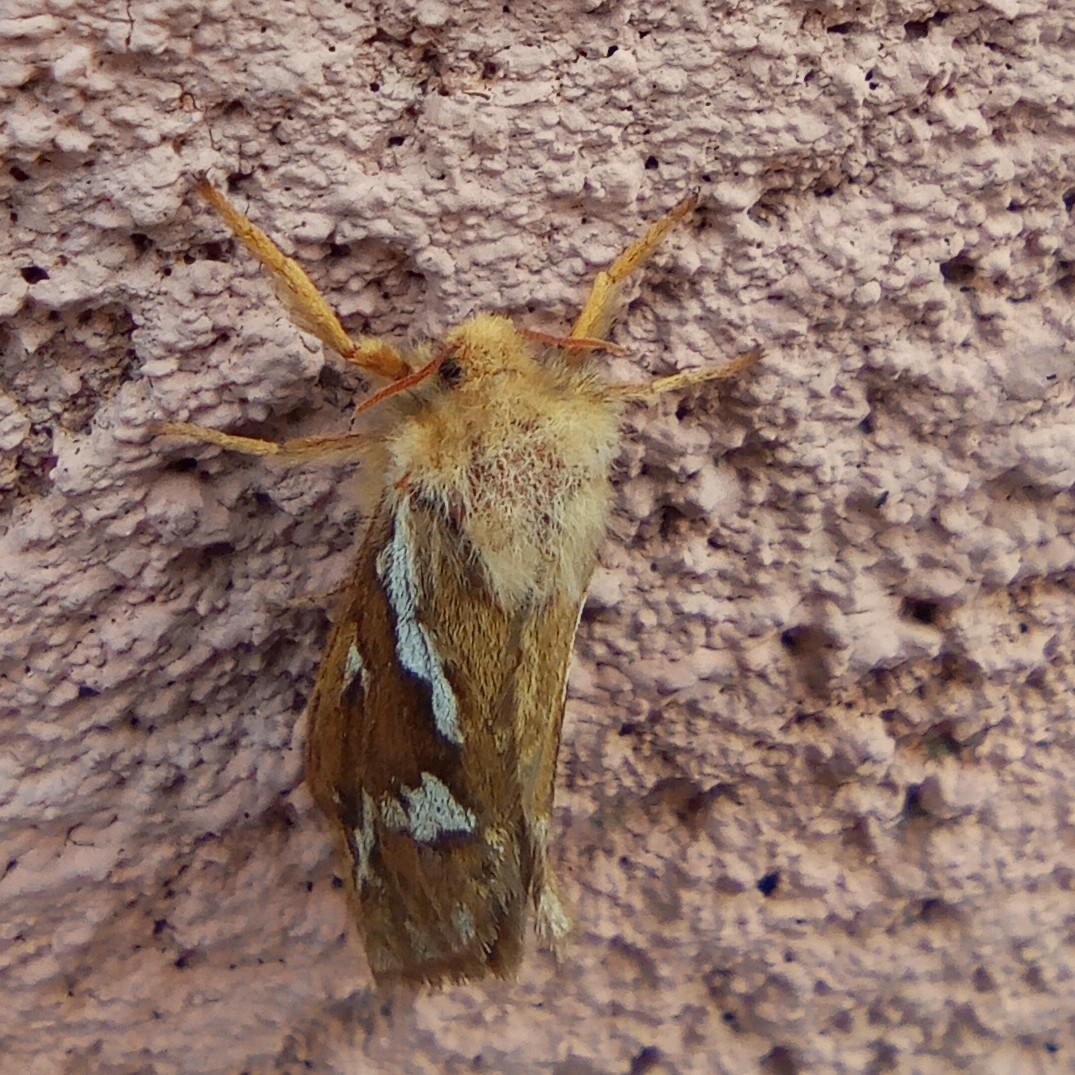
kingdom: Animalia
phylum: Arthropoda
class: Insecta
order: Lepidoptera
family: Hepialidae
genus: Korscheltellus
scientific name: Korscheltellus lupulina
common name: Common swift
